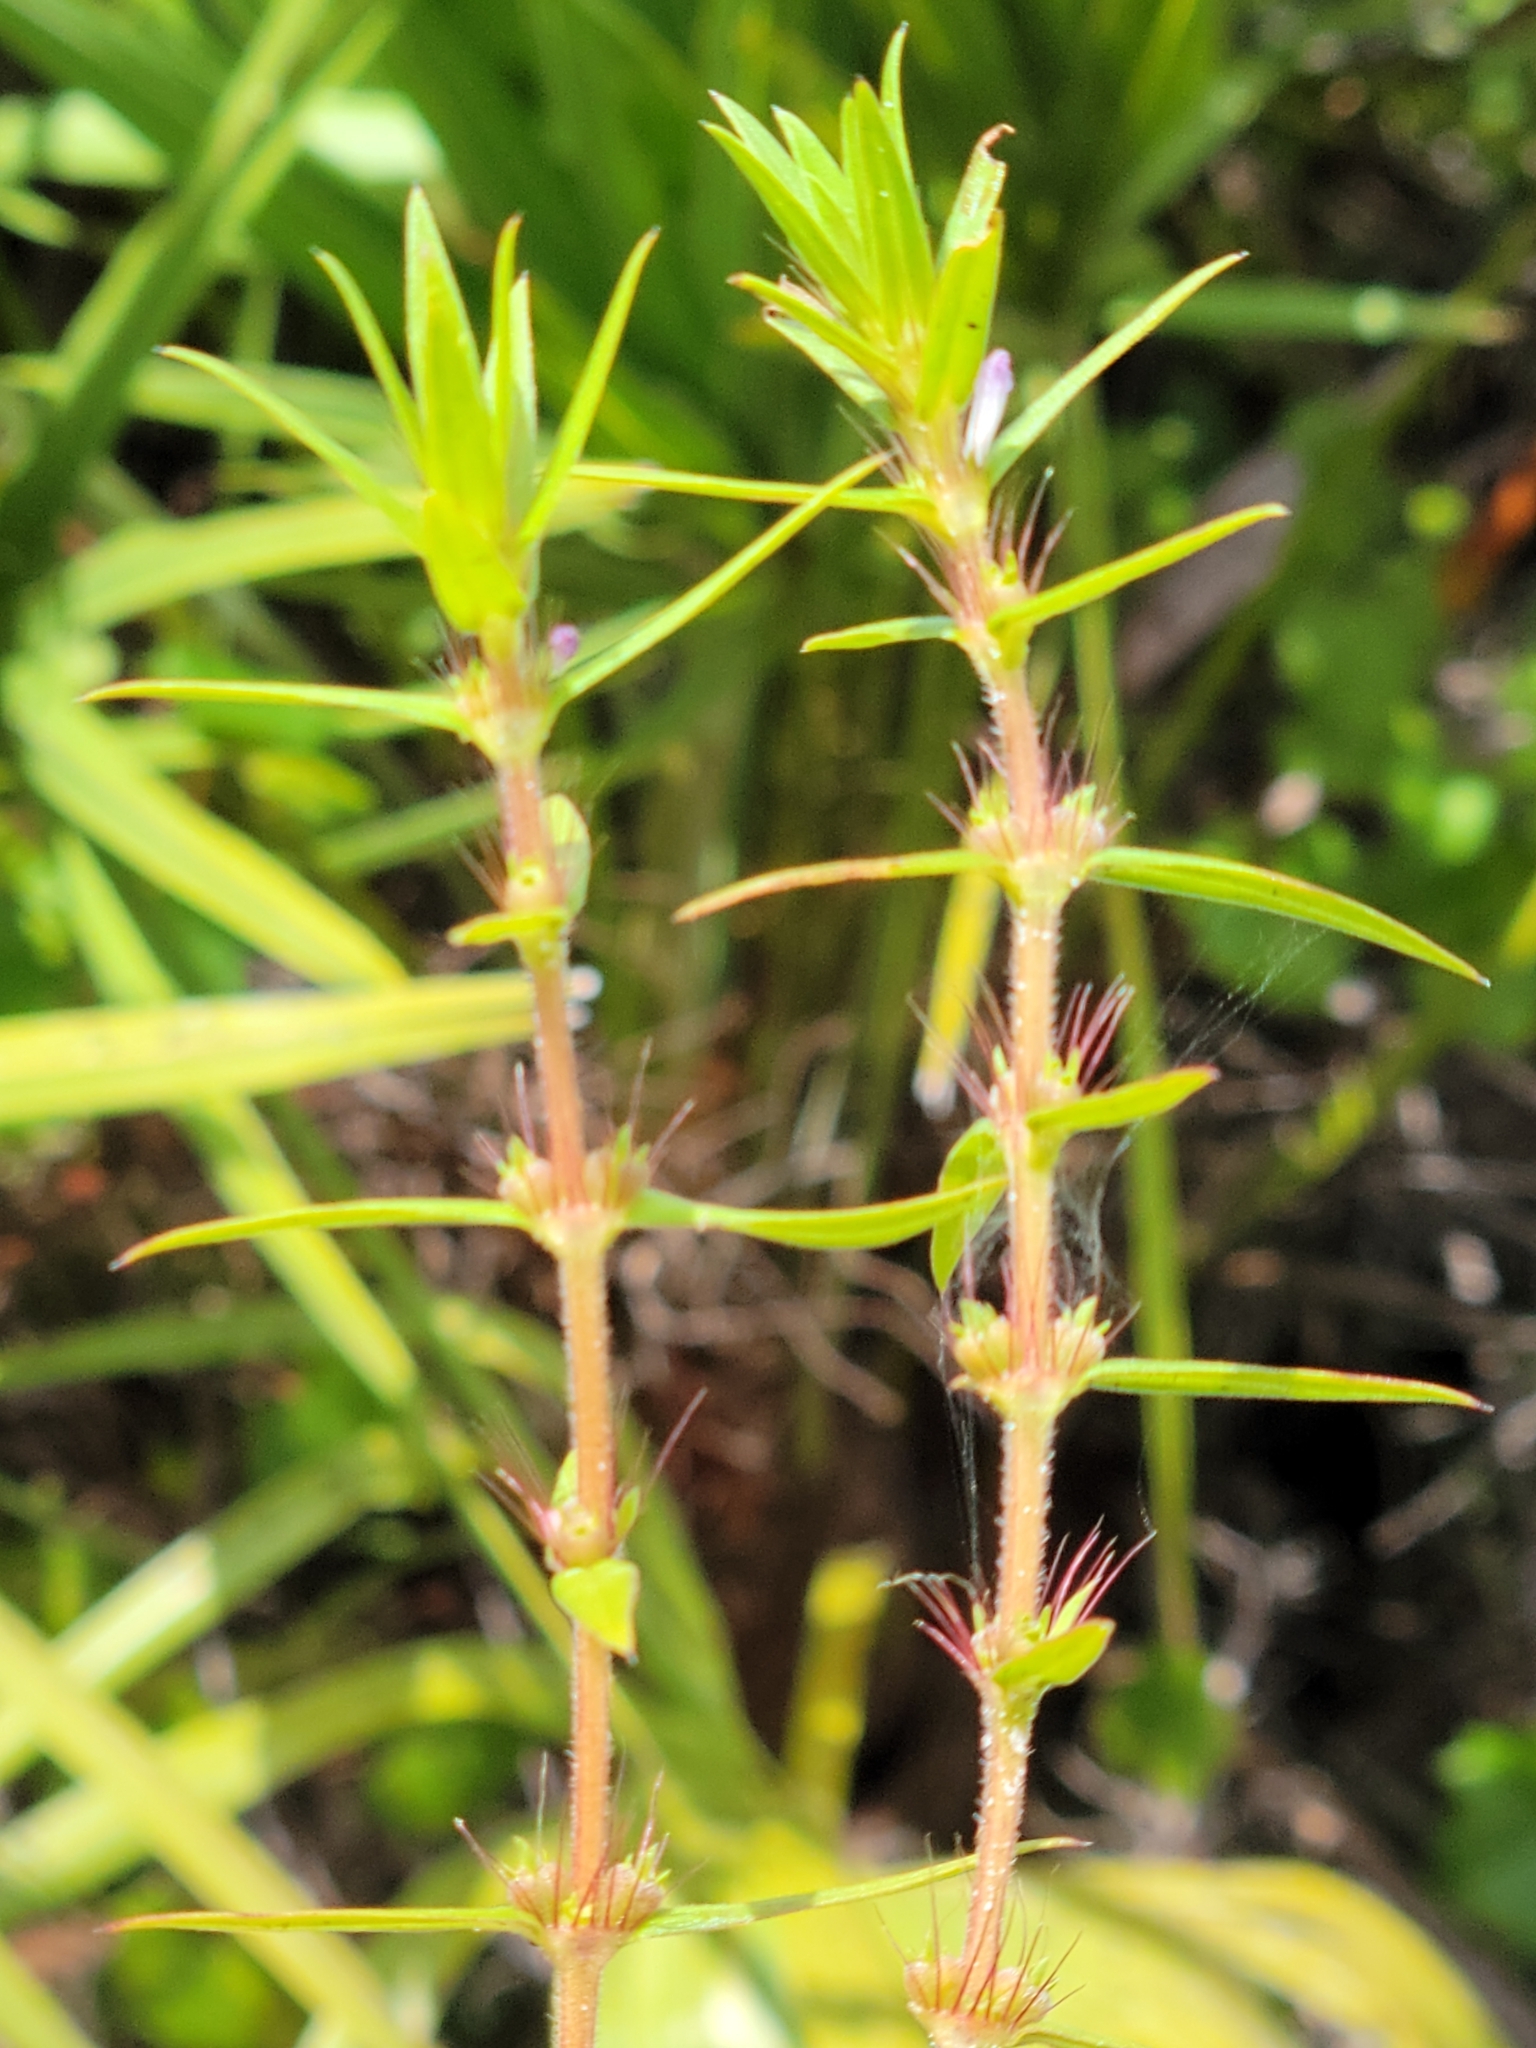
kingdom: Plantae
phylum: Tracheophyta
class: Magnoliopsida
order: Gentianales
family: Rubiaceae
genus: Hexasepalum
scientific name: Hexasepalum teres
